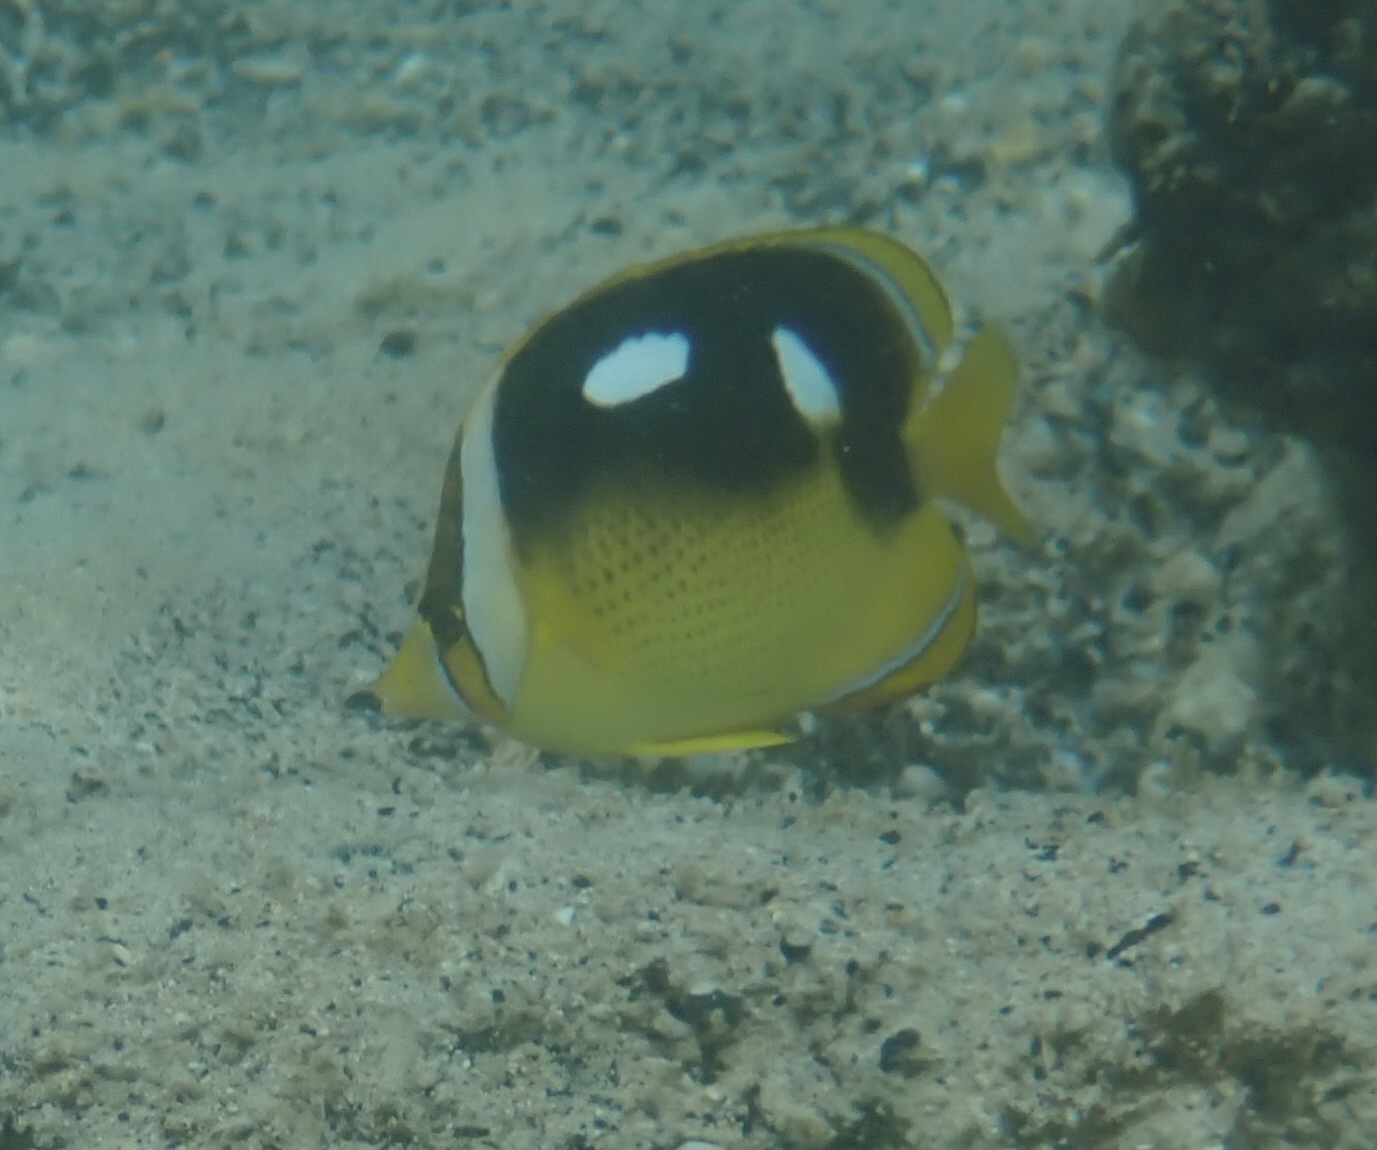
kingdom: Animalia
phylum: Chordata
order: Perciformes
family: Chaetodontidae
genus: Chaetodon
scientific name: Chaetodon quadrimaculatus
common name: Fourspot butterflyfish
